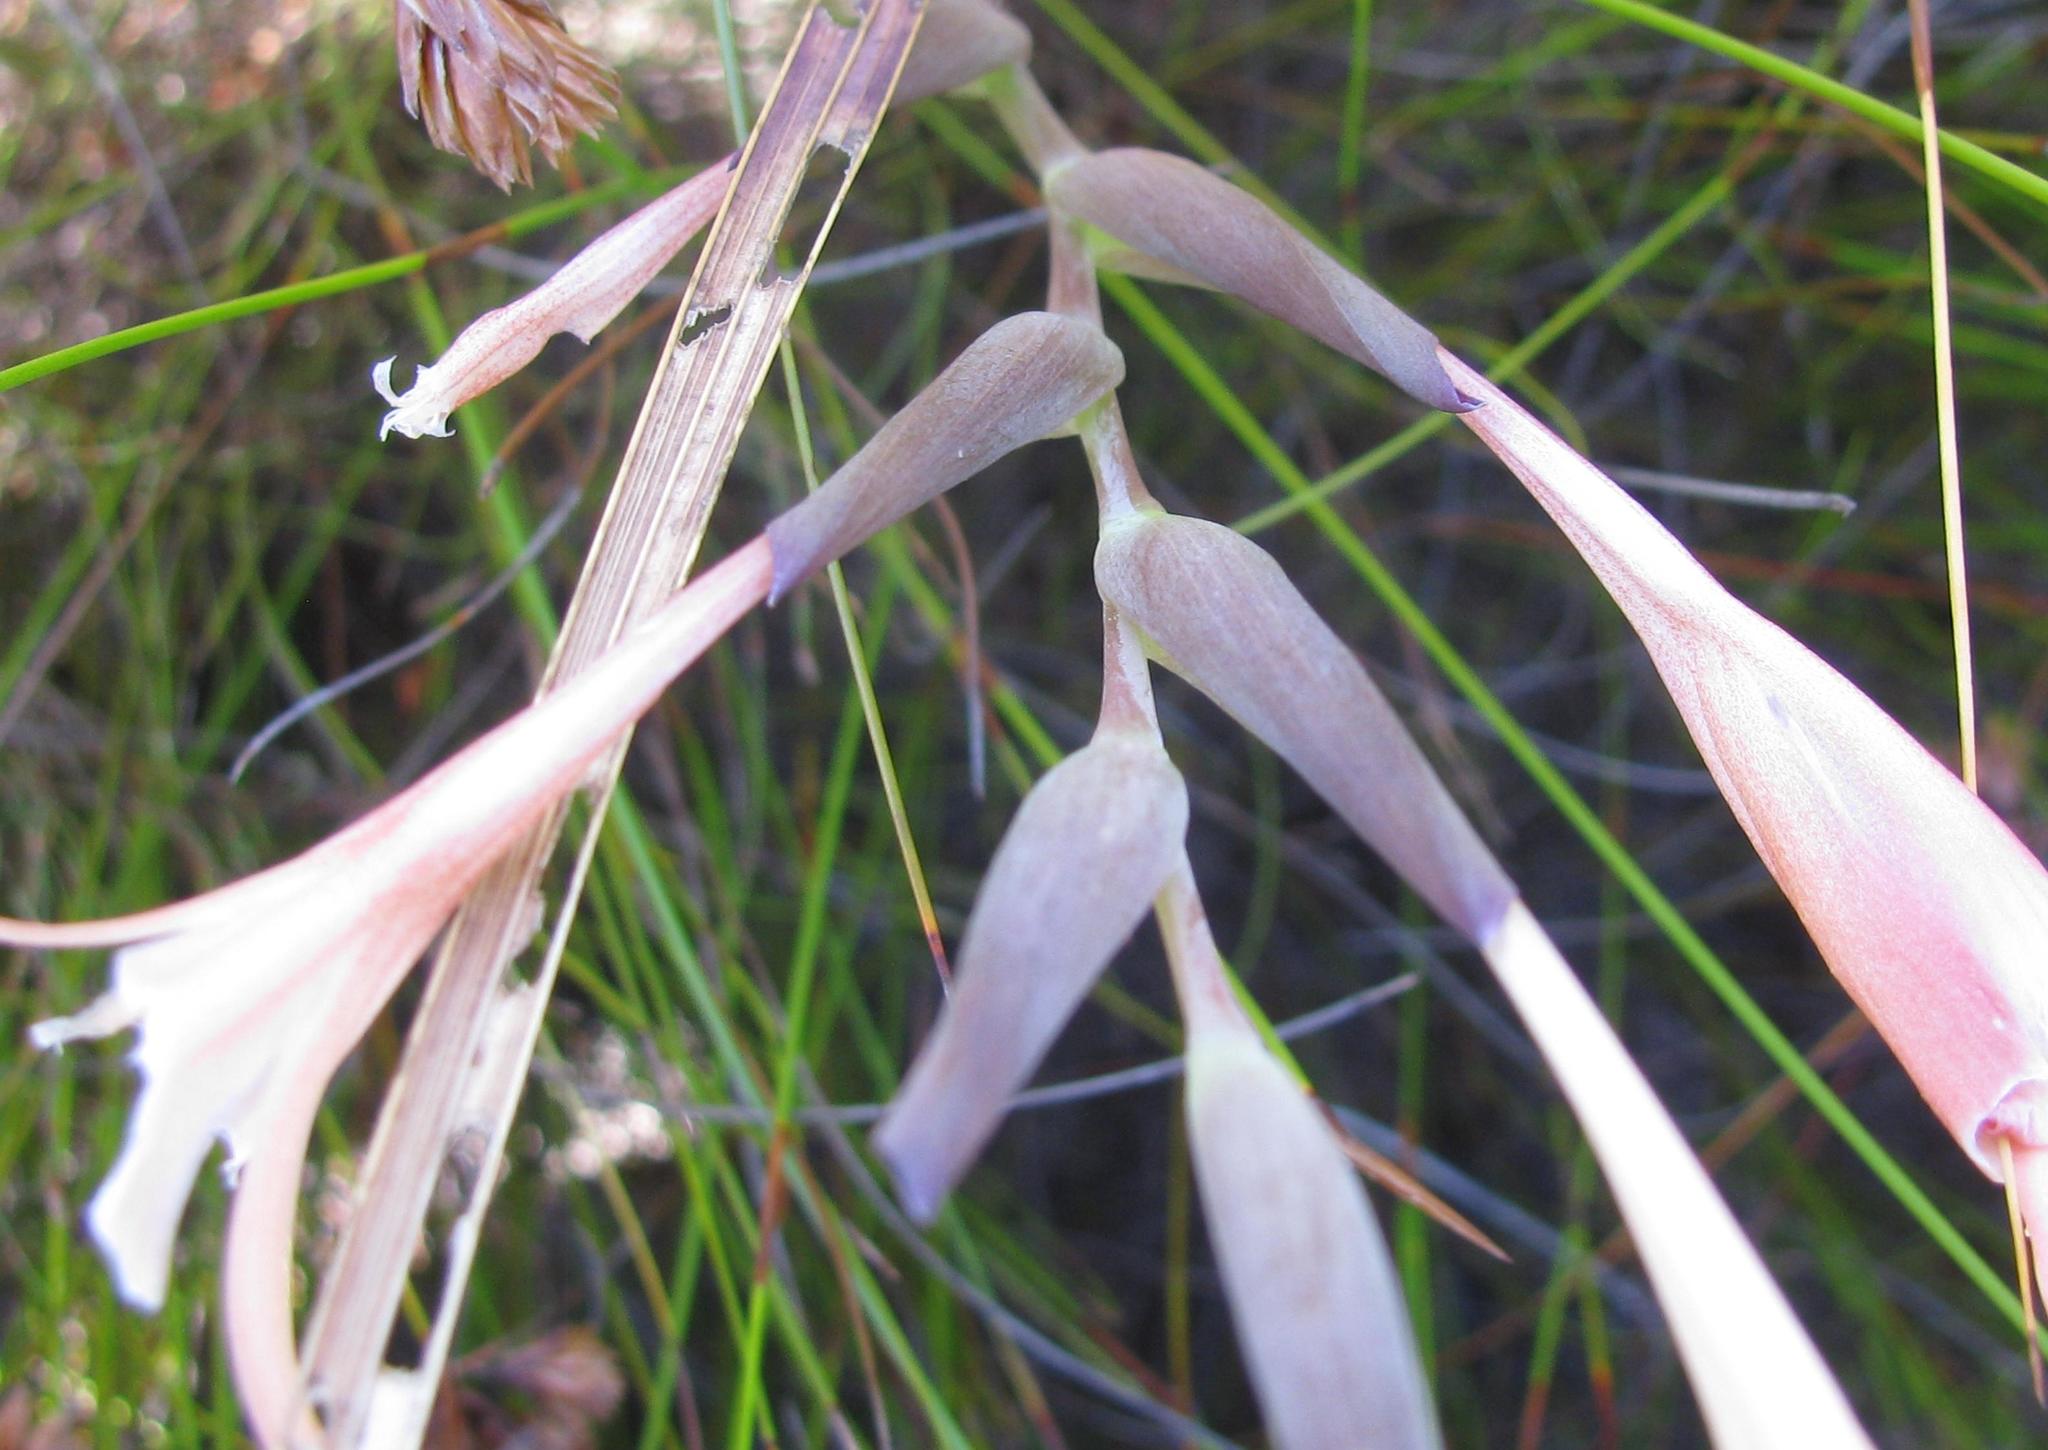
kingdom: Plantae
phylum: Tracheophyta
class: Liliopsida
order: Asparagales
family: Iridaceae
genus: Gladiolus
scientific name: Gladiolus undulatus
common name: Large painted-lady
